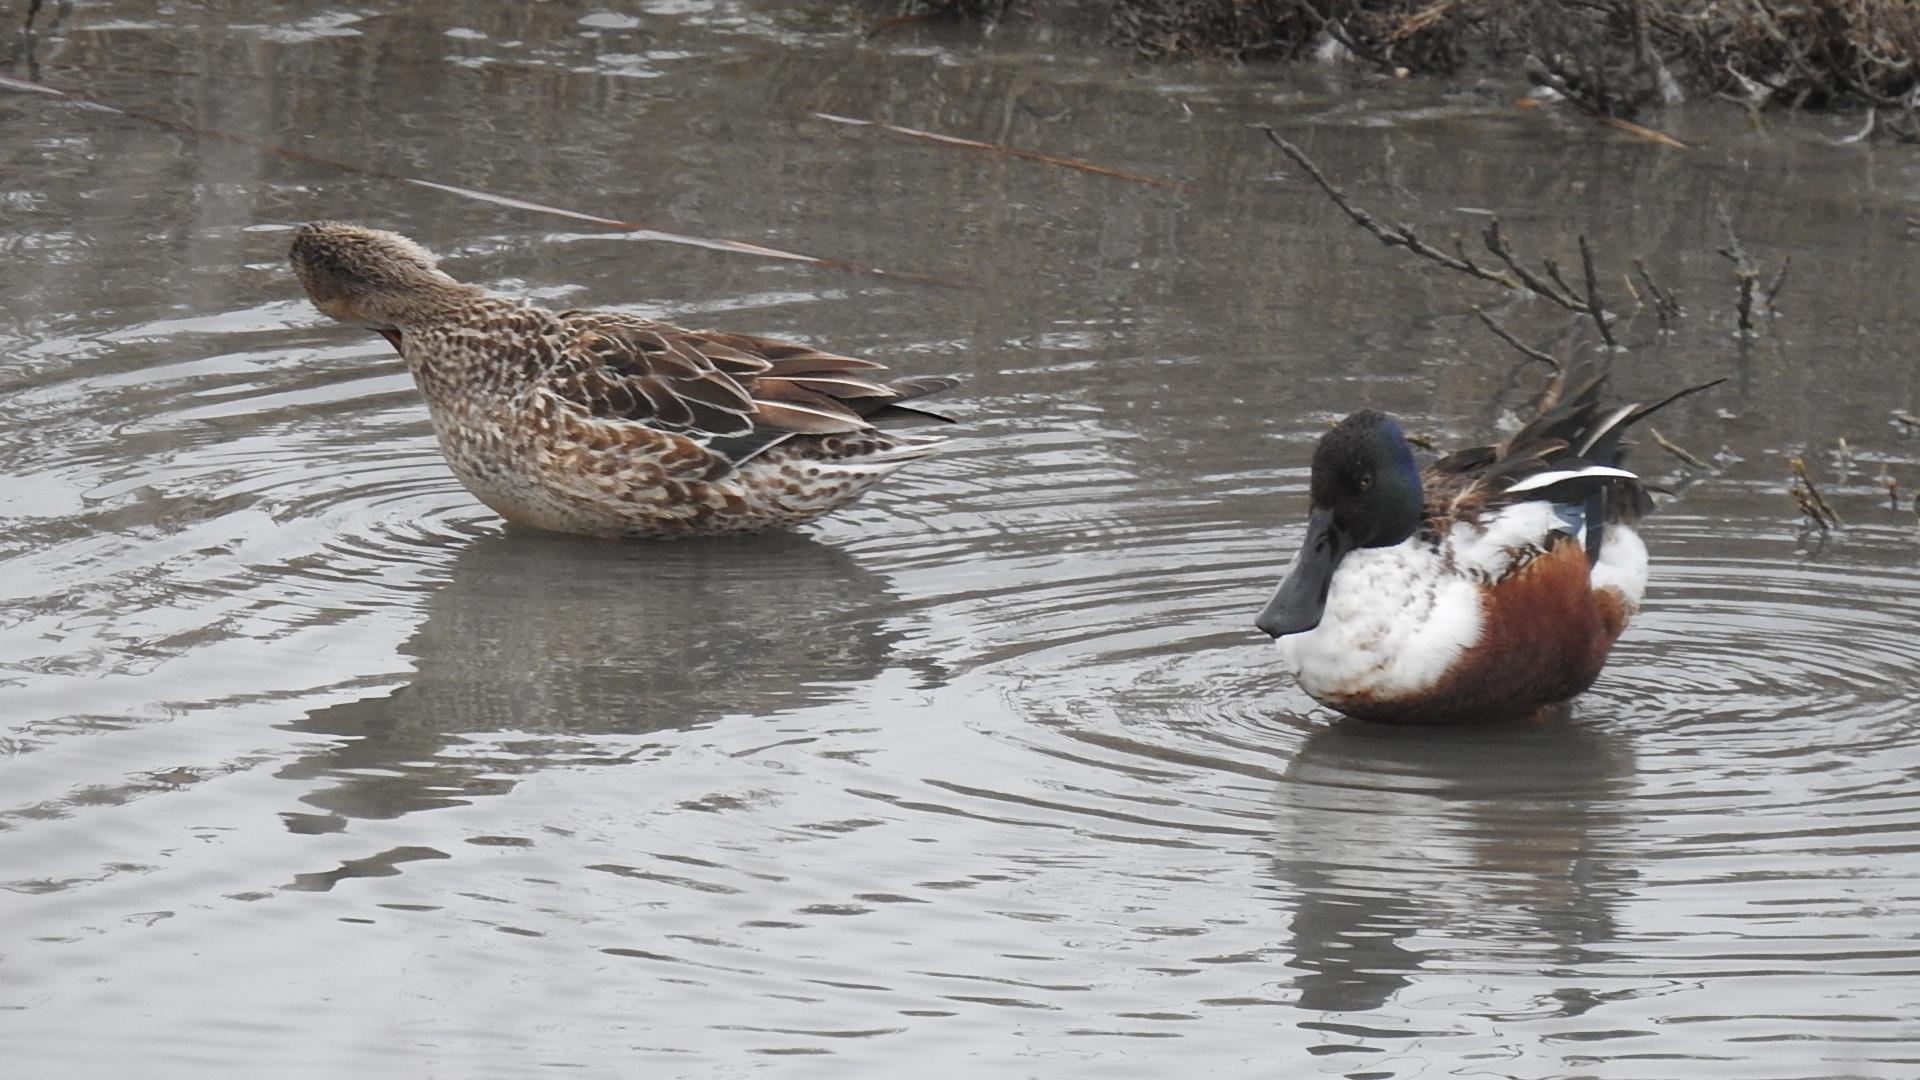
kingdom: Animalia
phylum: Chordata
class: Aves
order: Anseriformes
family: Anatidae
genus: Spatula
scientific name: Spatula clypeata
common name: Northern shoveler
